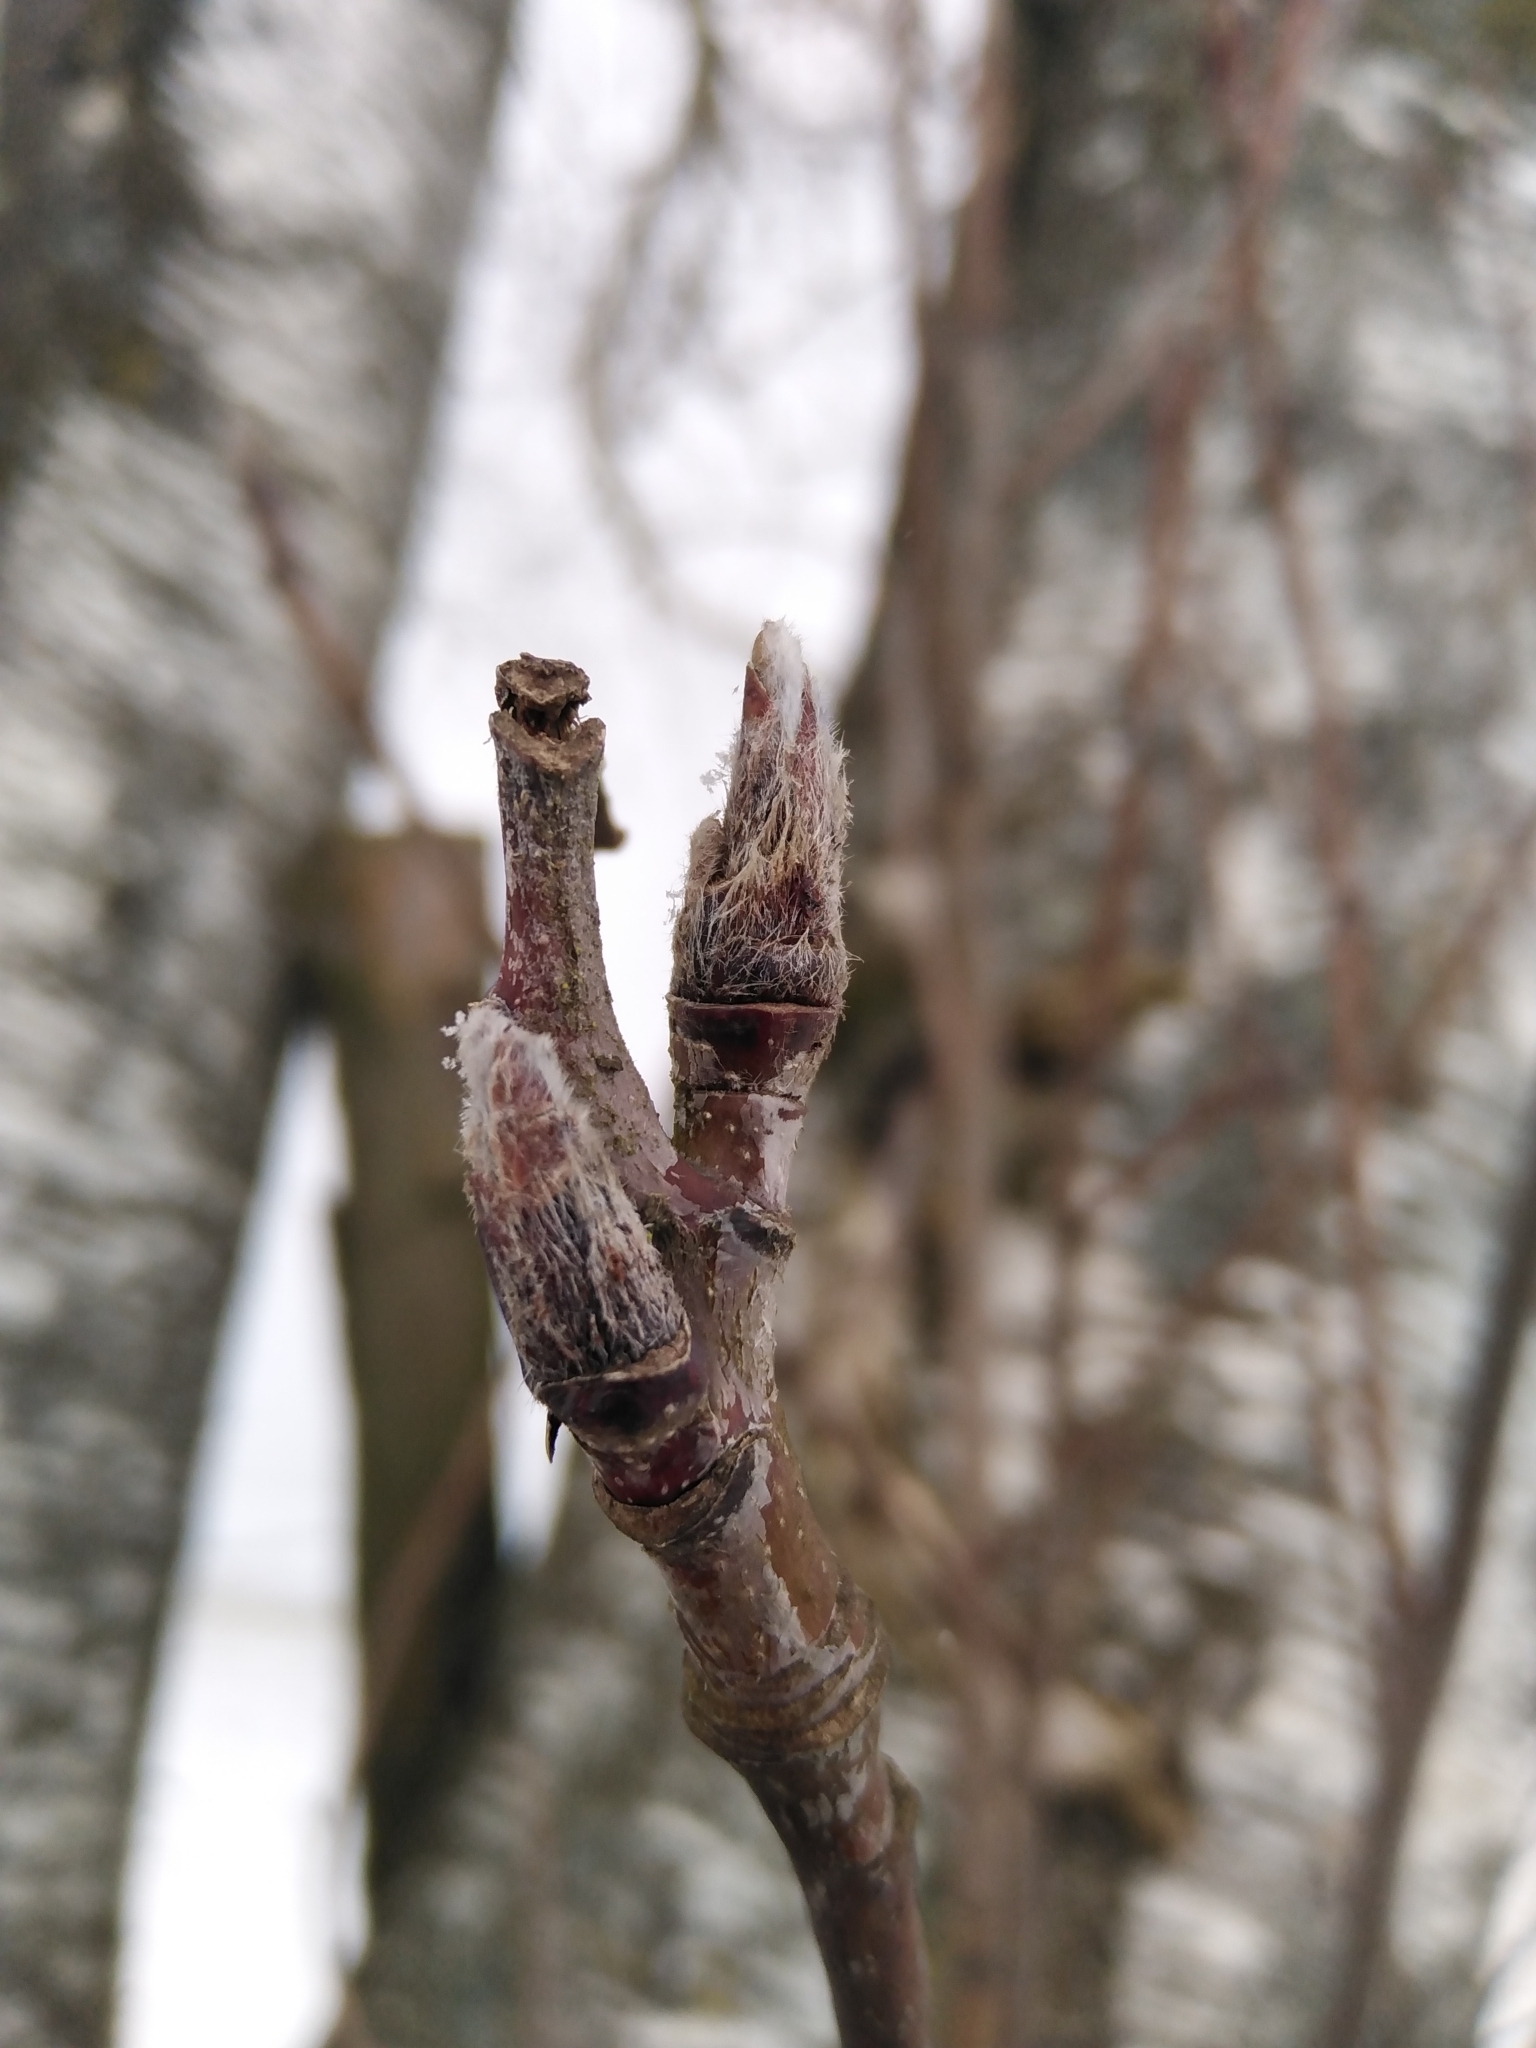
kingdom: Plantae
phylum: Tracheophyta
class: Magnoliopsida
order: Rosales
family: Rosaceae
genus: Sorbus
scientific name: Sorbus aucuparia
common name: Rowan
